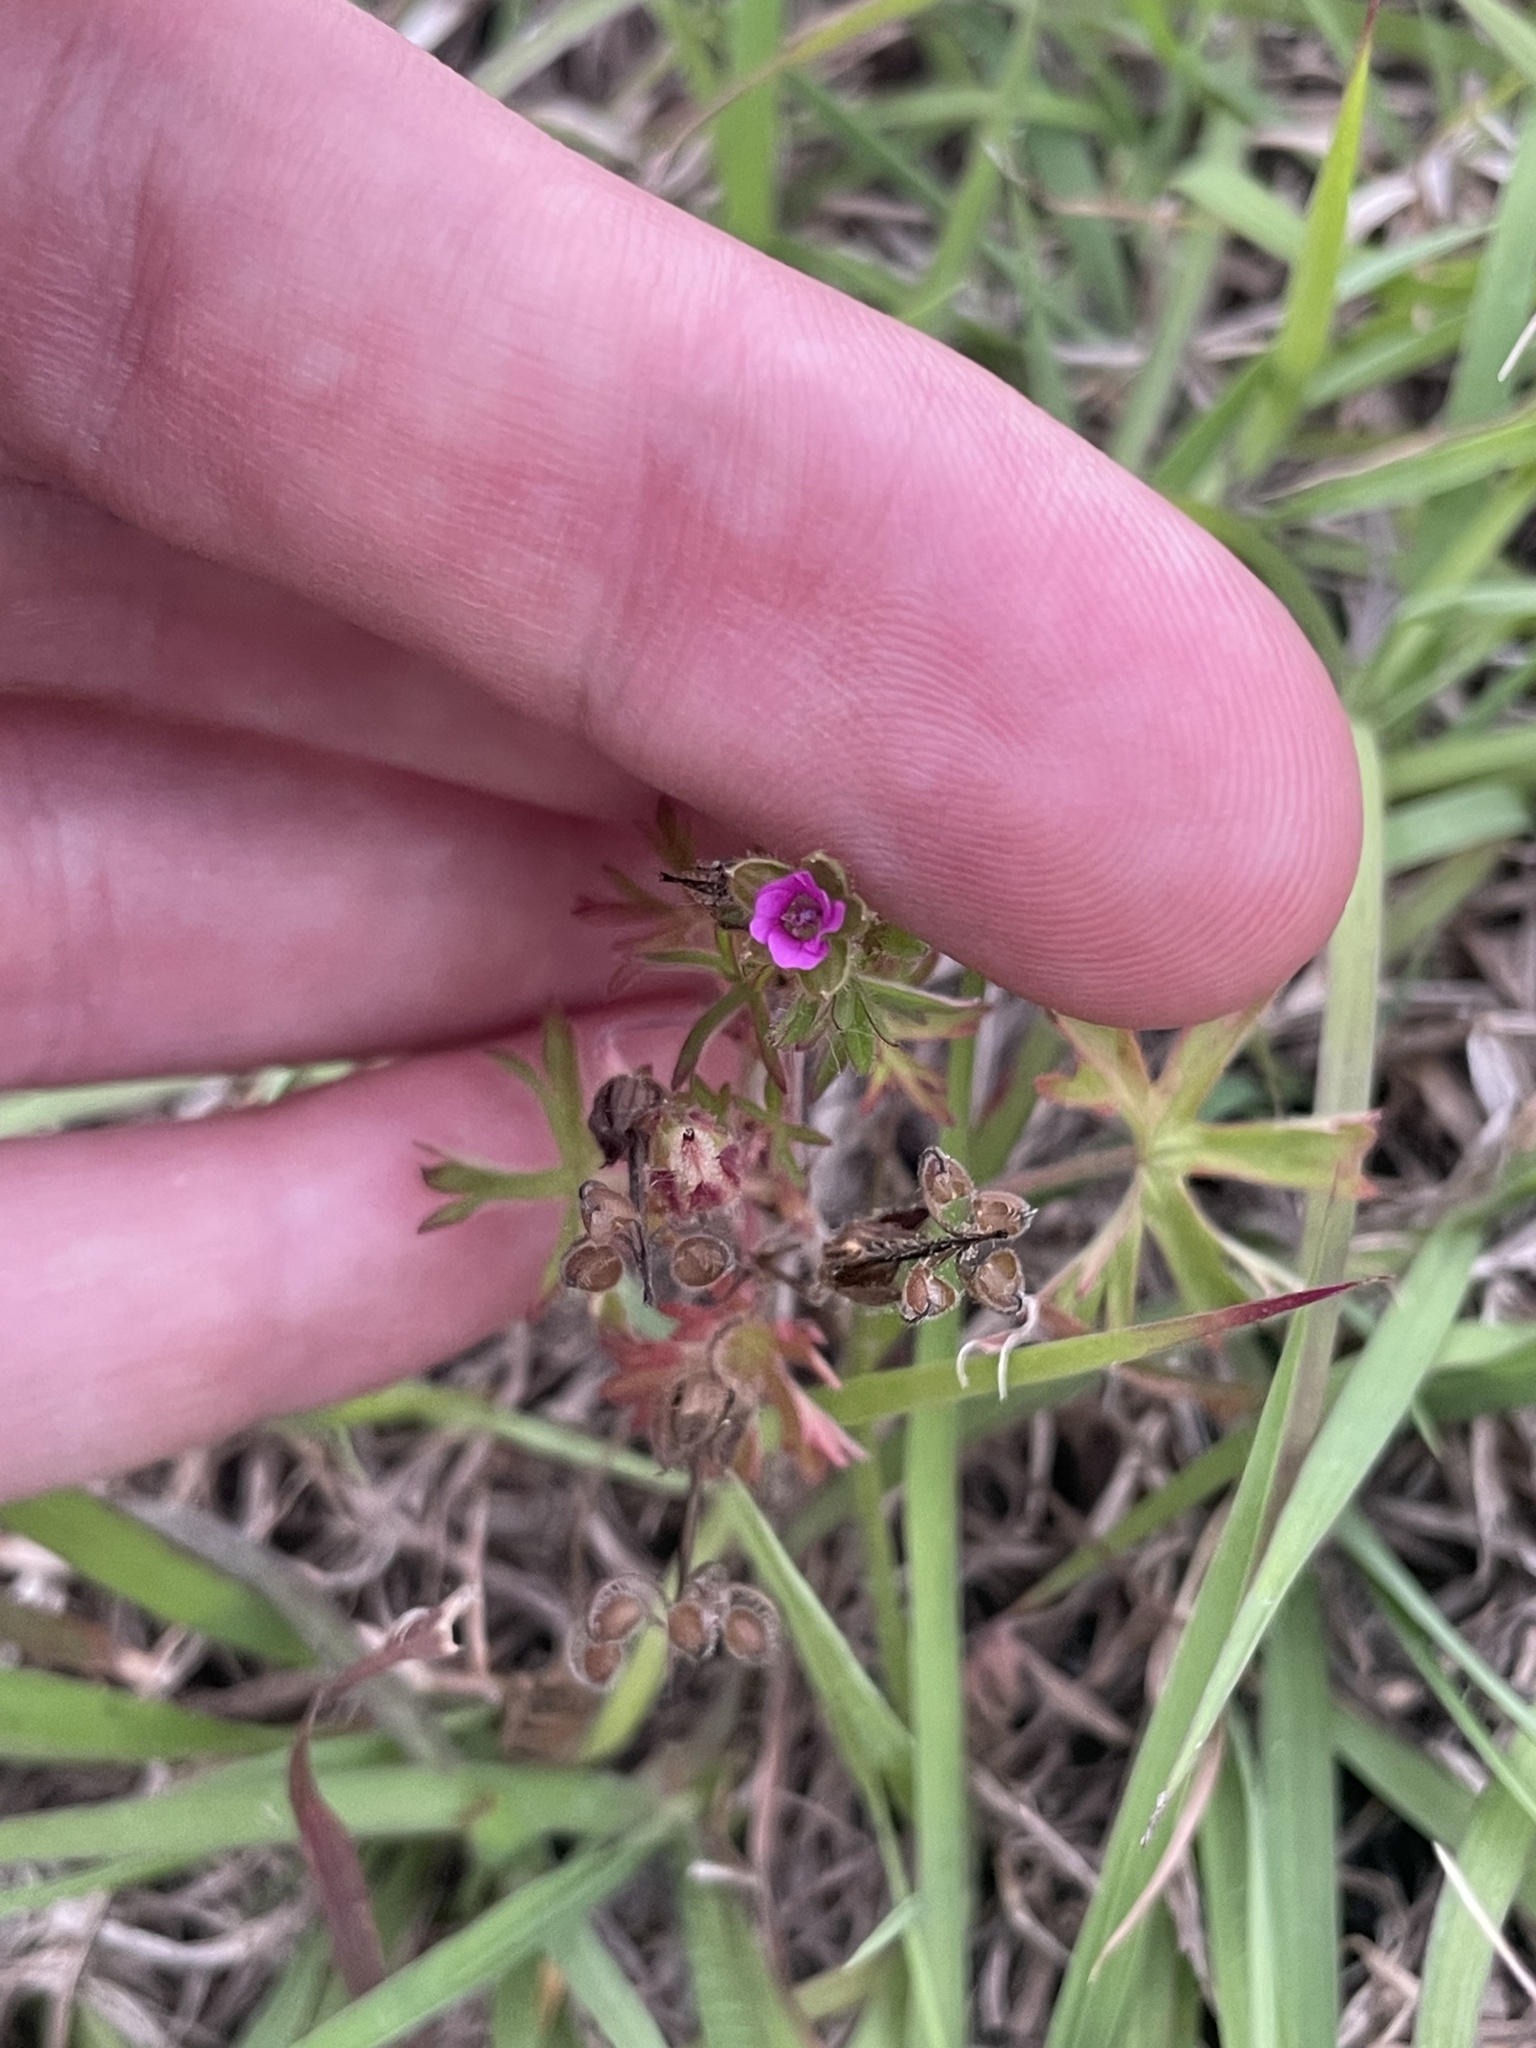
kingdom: Plantae
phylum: Tracheophyta
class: Magnoliopsida
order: Geraniales
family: Geraniaceae
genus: Geranium
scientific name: Geranium dissectum
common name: Cut-leaved crane's-bill
